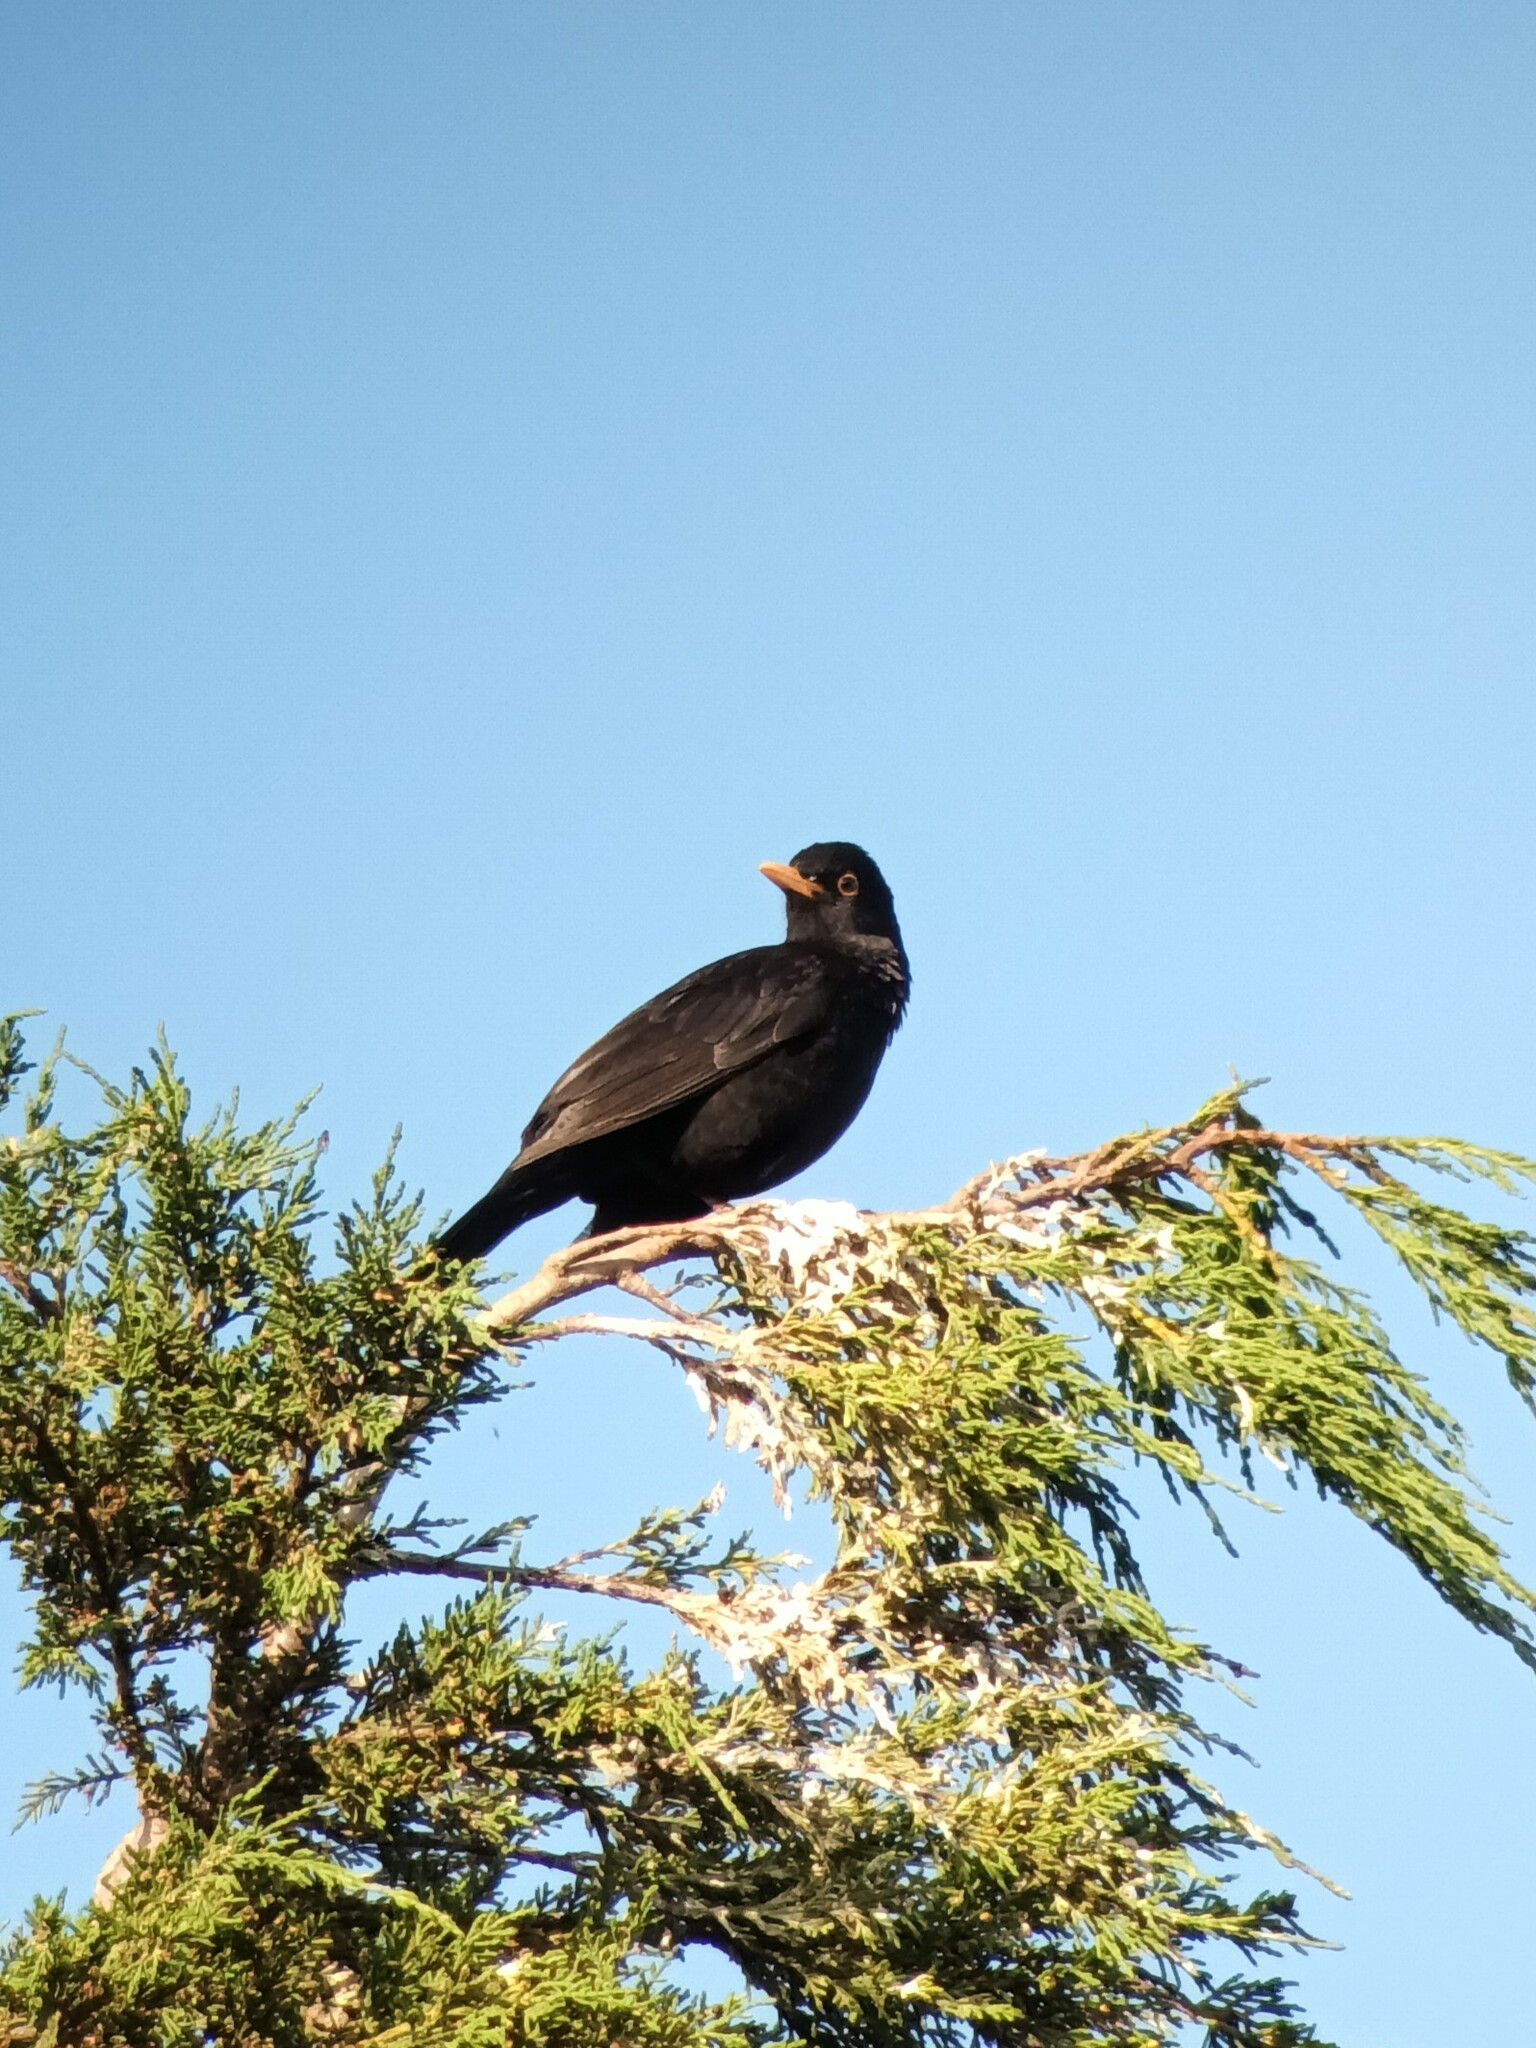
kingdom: Animalia
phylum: Chordata
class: Aves
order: Passeriformes
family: Turdidae
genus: Turdus
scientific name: Turdus merula
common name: Common blackbird
